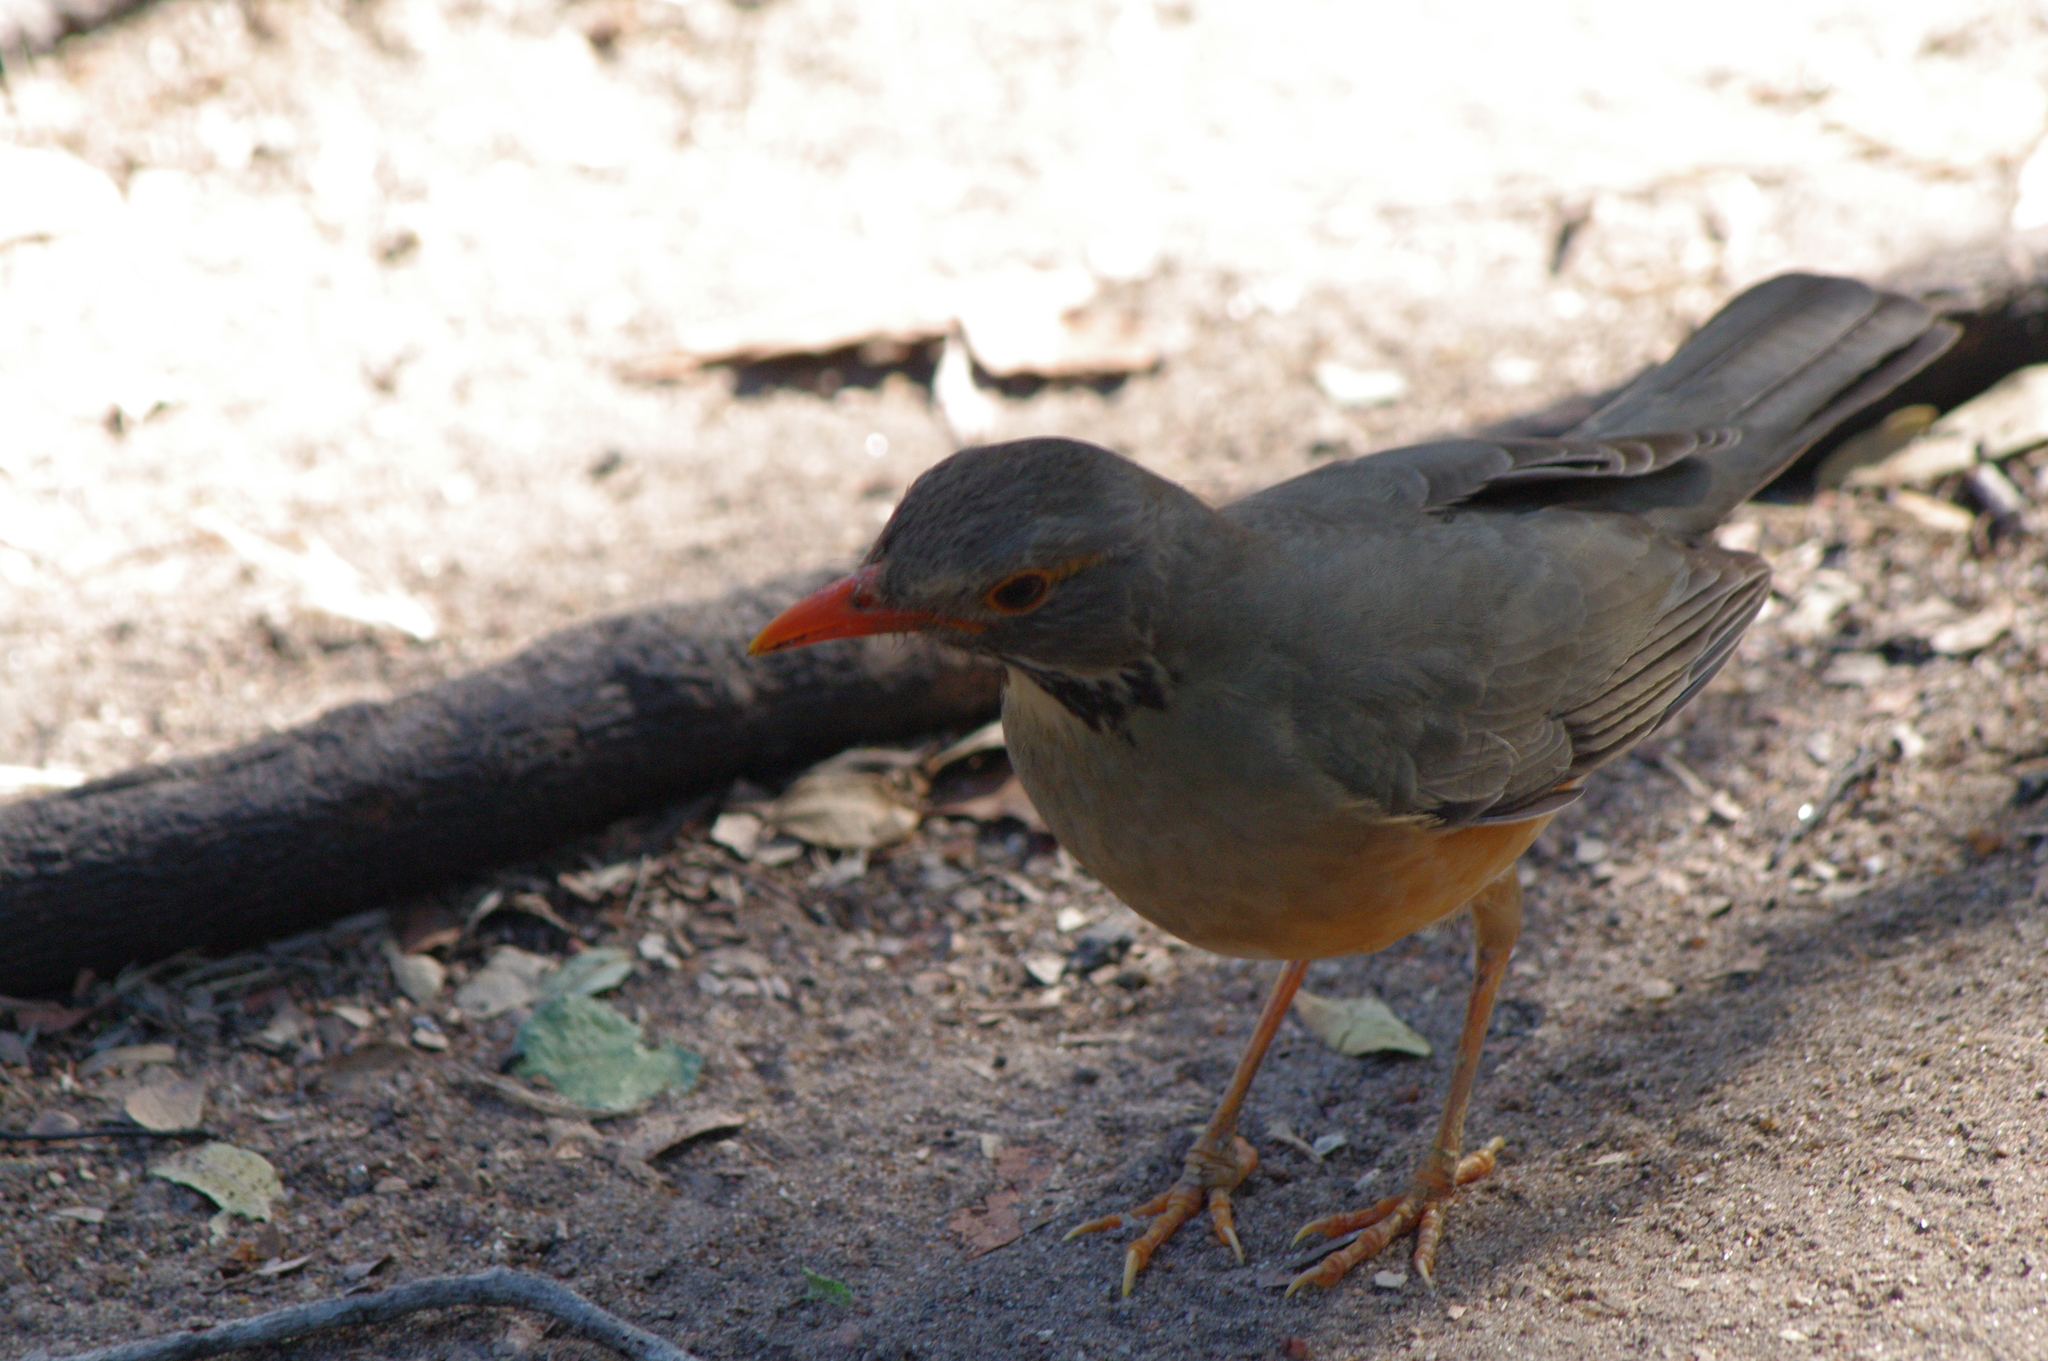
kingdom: Animalia
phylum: Chordata
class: Aves
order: Passeriformes
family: Turdidae
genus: Turdus
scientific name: Turdus libonyana
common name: Kurrichane thrush
